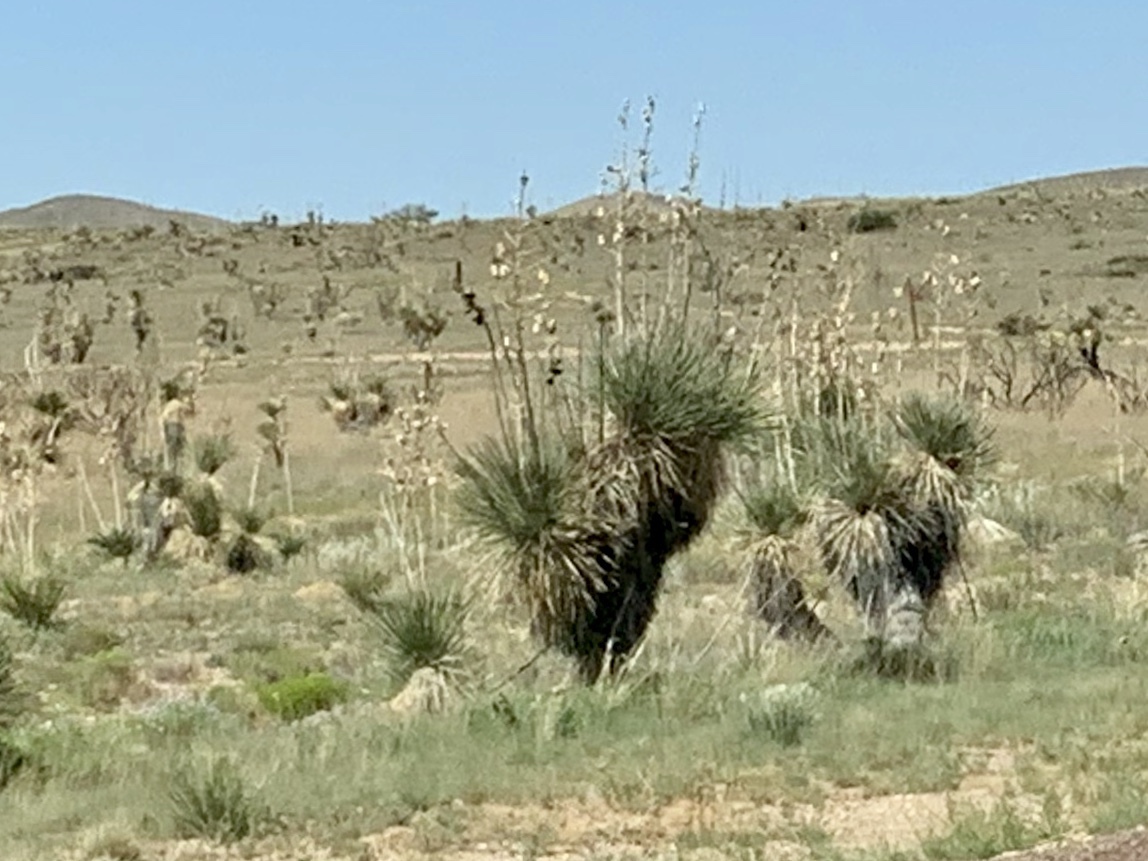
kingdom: Plantae
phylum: Tracheophyta
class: Liliopsida
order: Asparagales
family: Asparagaceae
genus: Yucca
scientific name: Yucca elata
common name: Palmella
